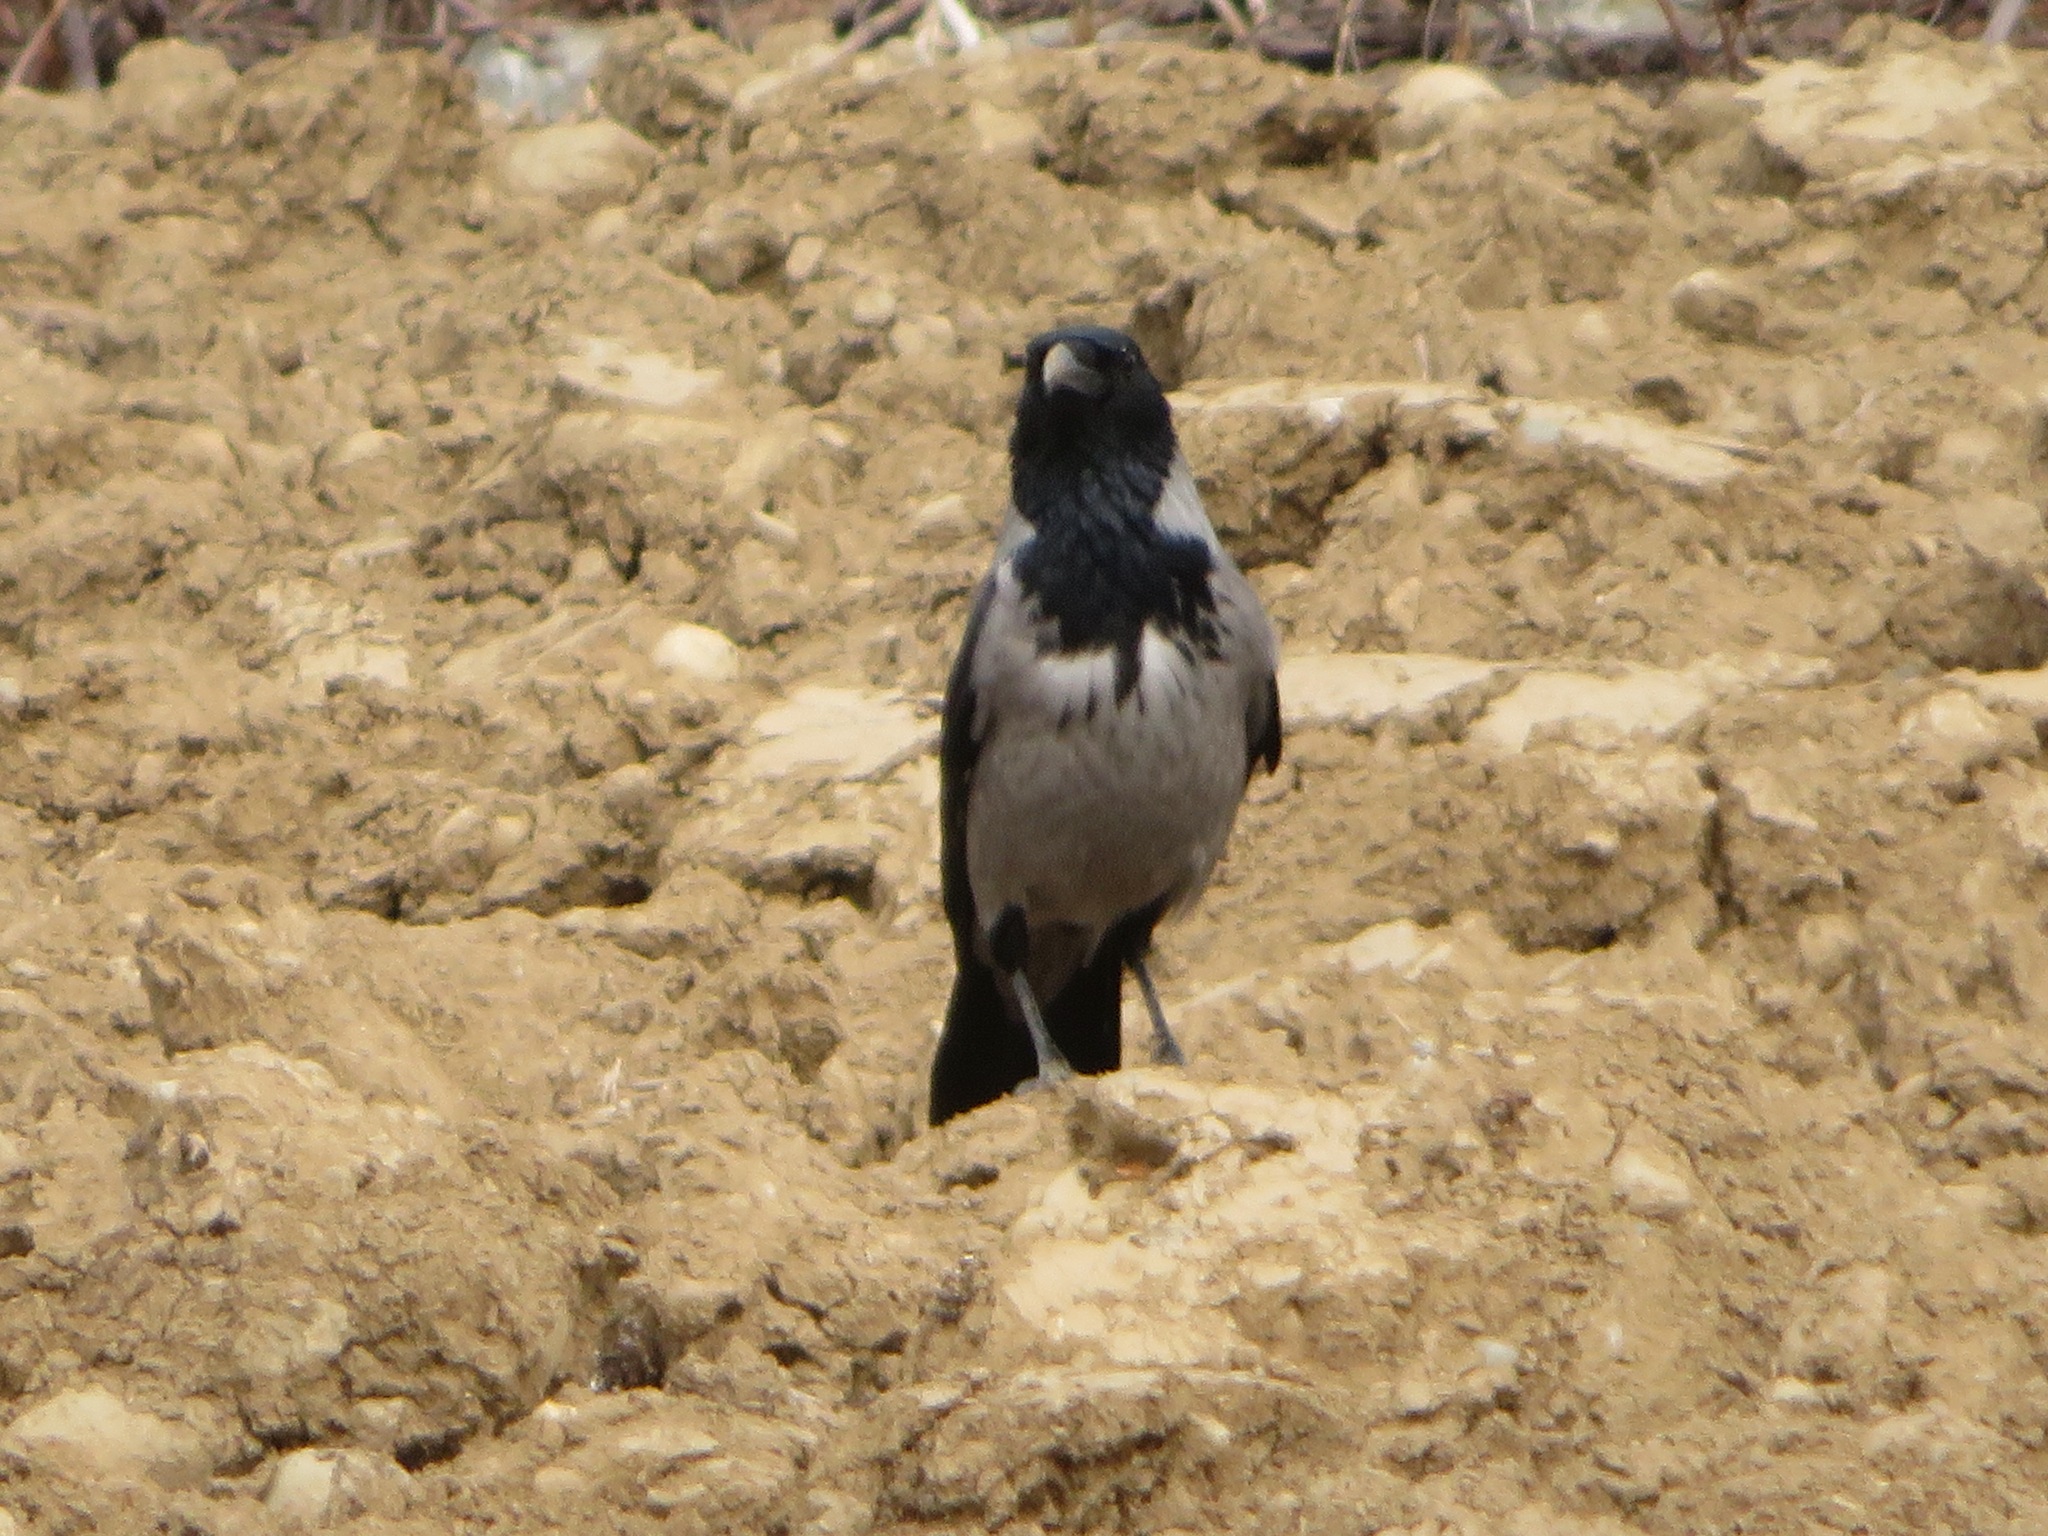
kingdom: Animalia
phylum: Chordata
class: Aves
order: Passeriformes
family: Corvidae
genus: Corvus
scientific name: Corvus cornix
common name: Hooded crow
